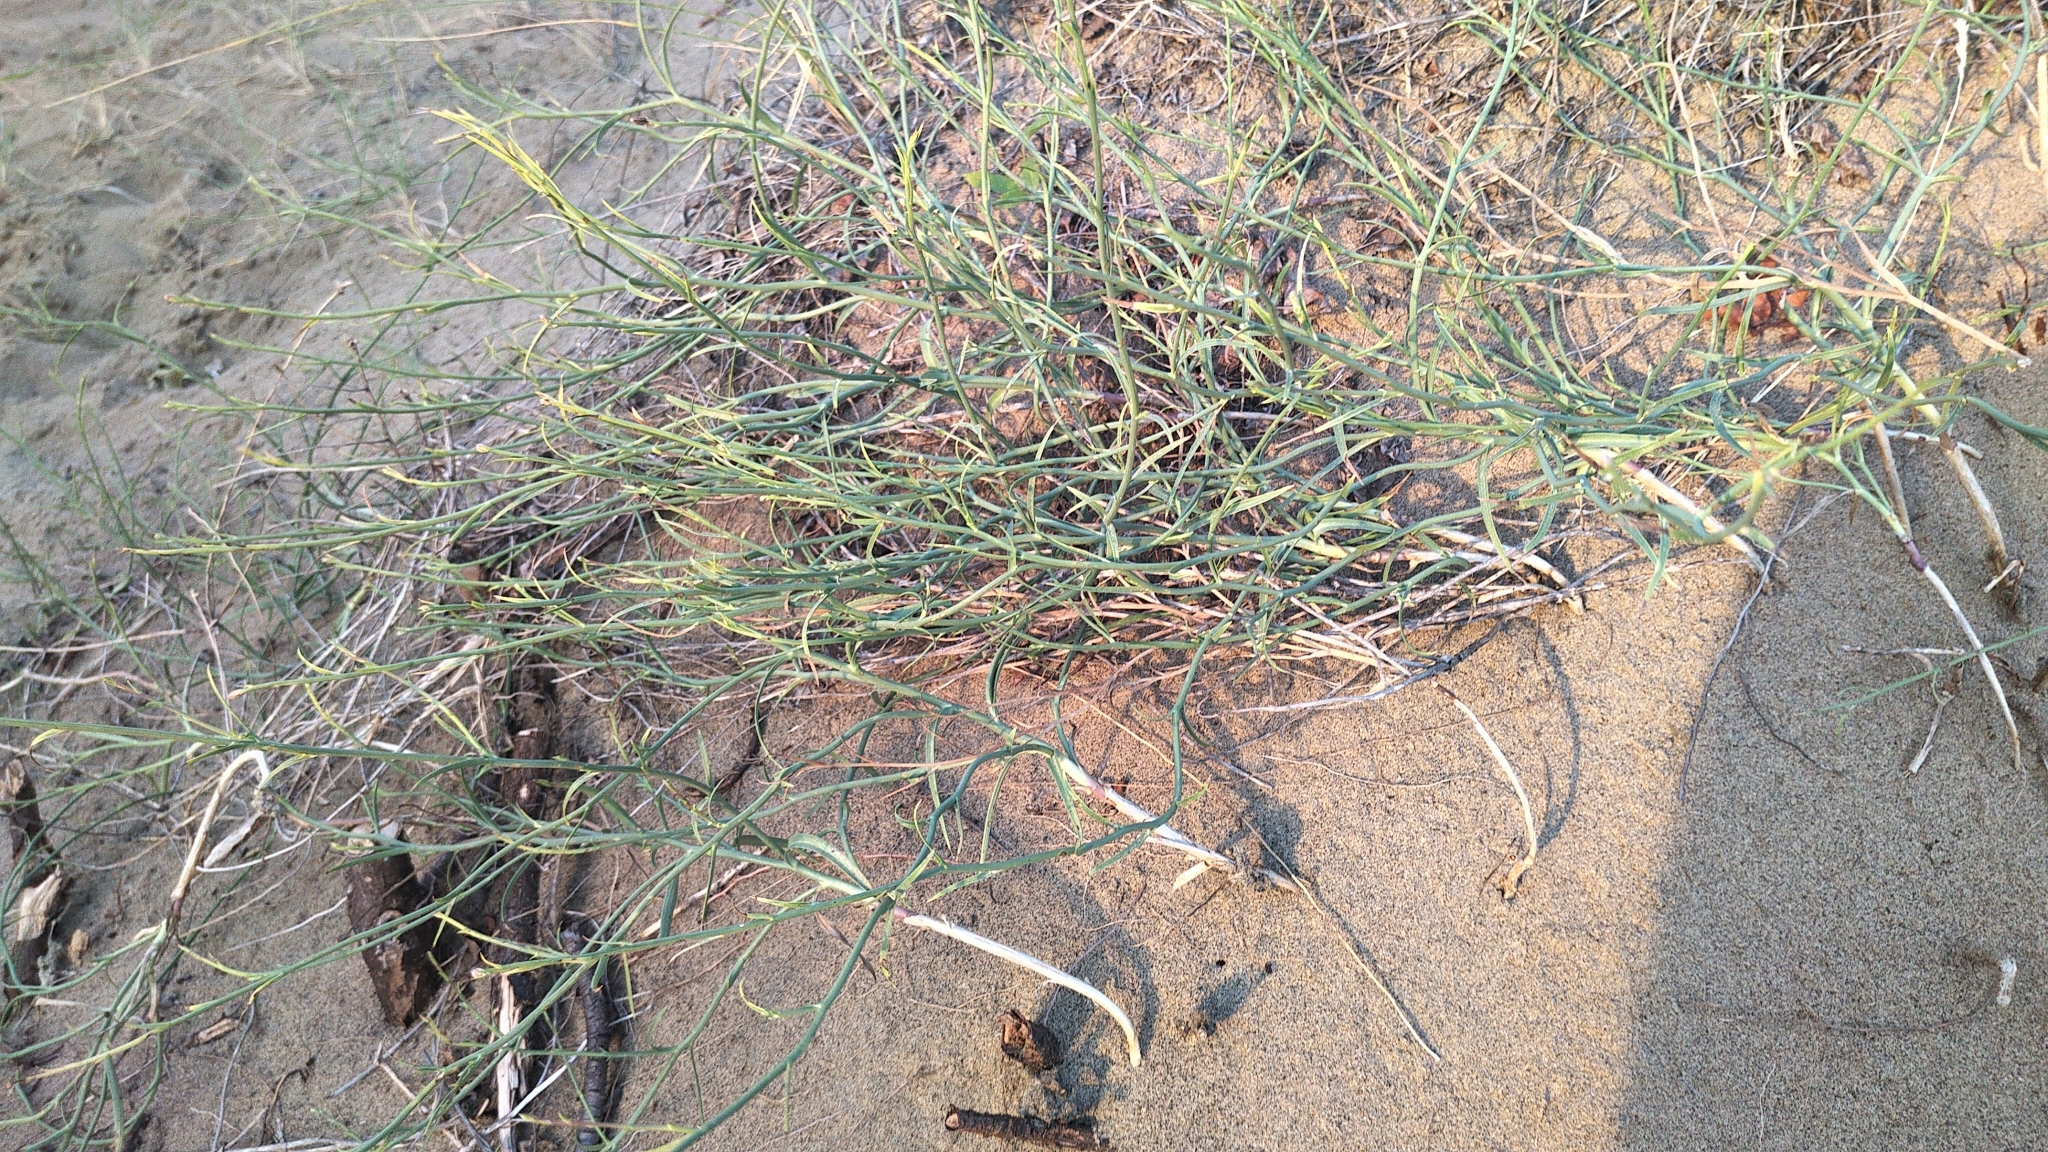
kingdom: Plantae
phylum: Tracheophyta
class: Magnoliopsida
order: Asterales
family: Asteraceae
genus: Lygodesmia
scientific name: Lygodesmia juncea
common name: Common skeletonweed
